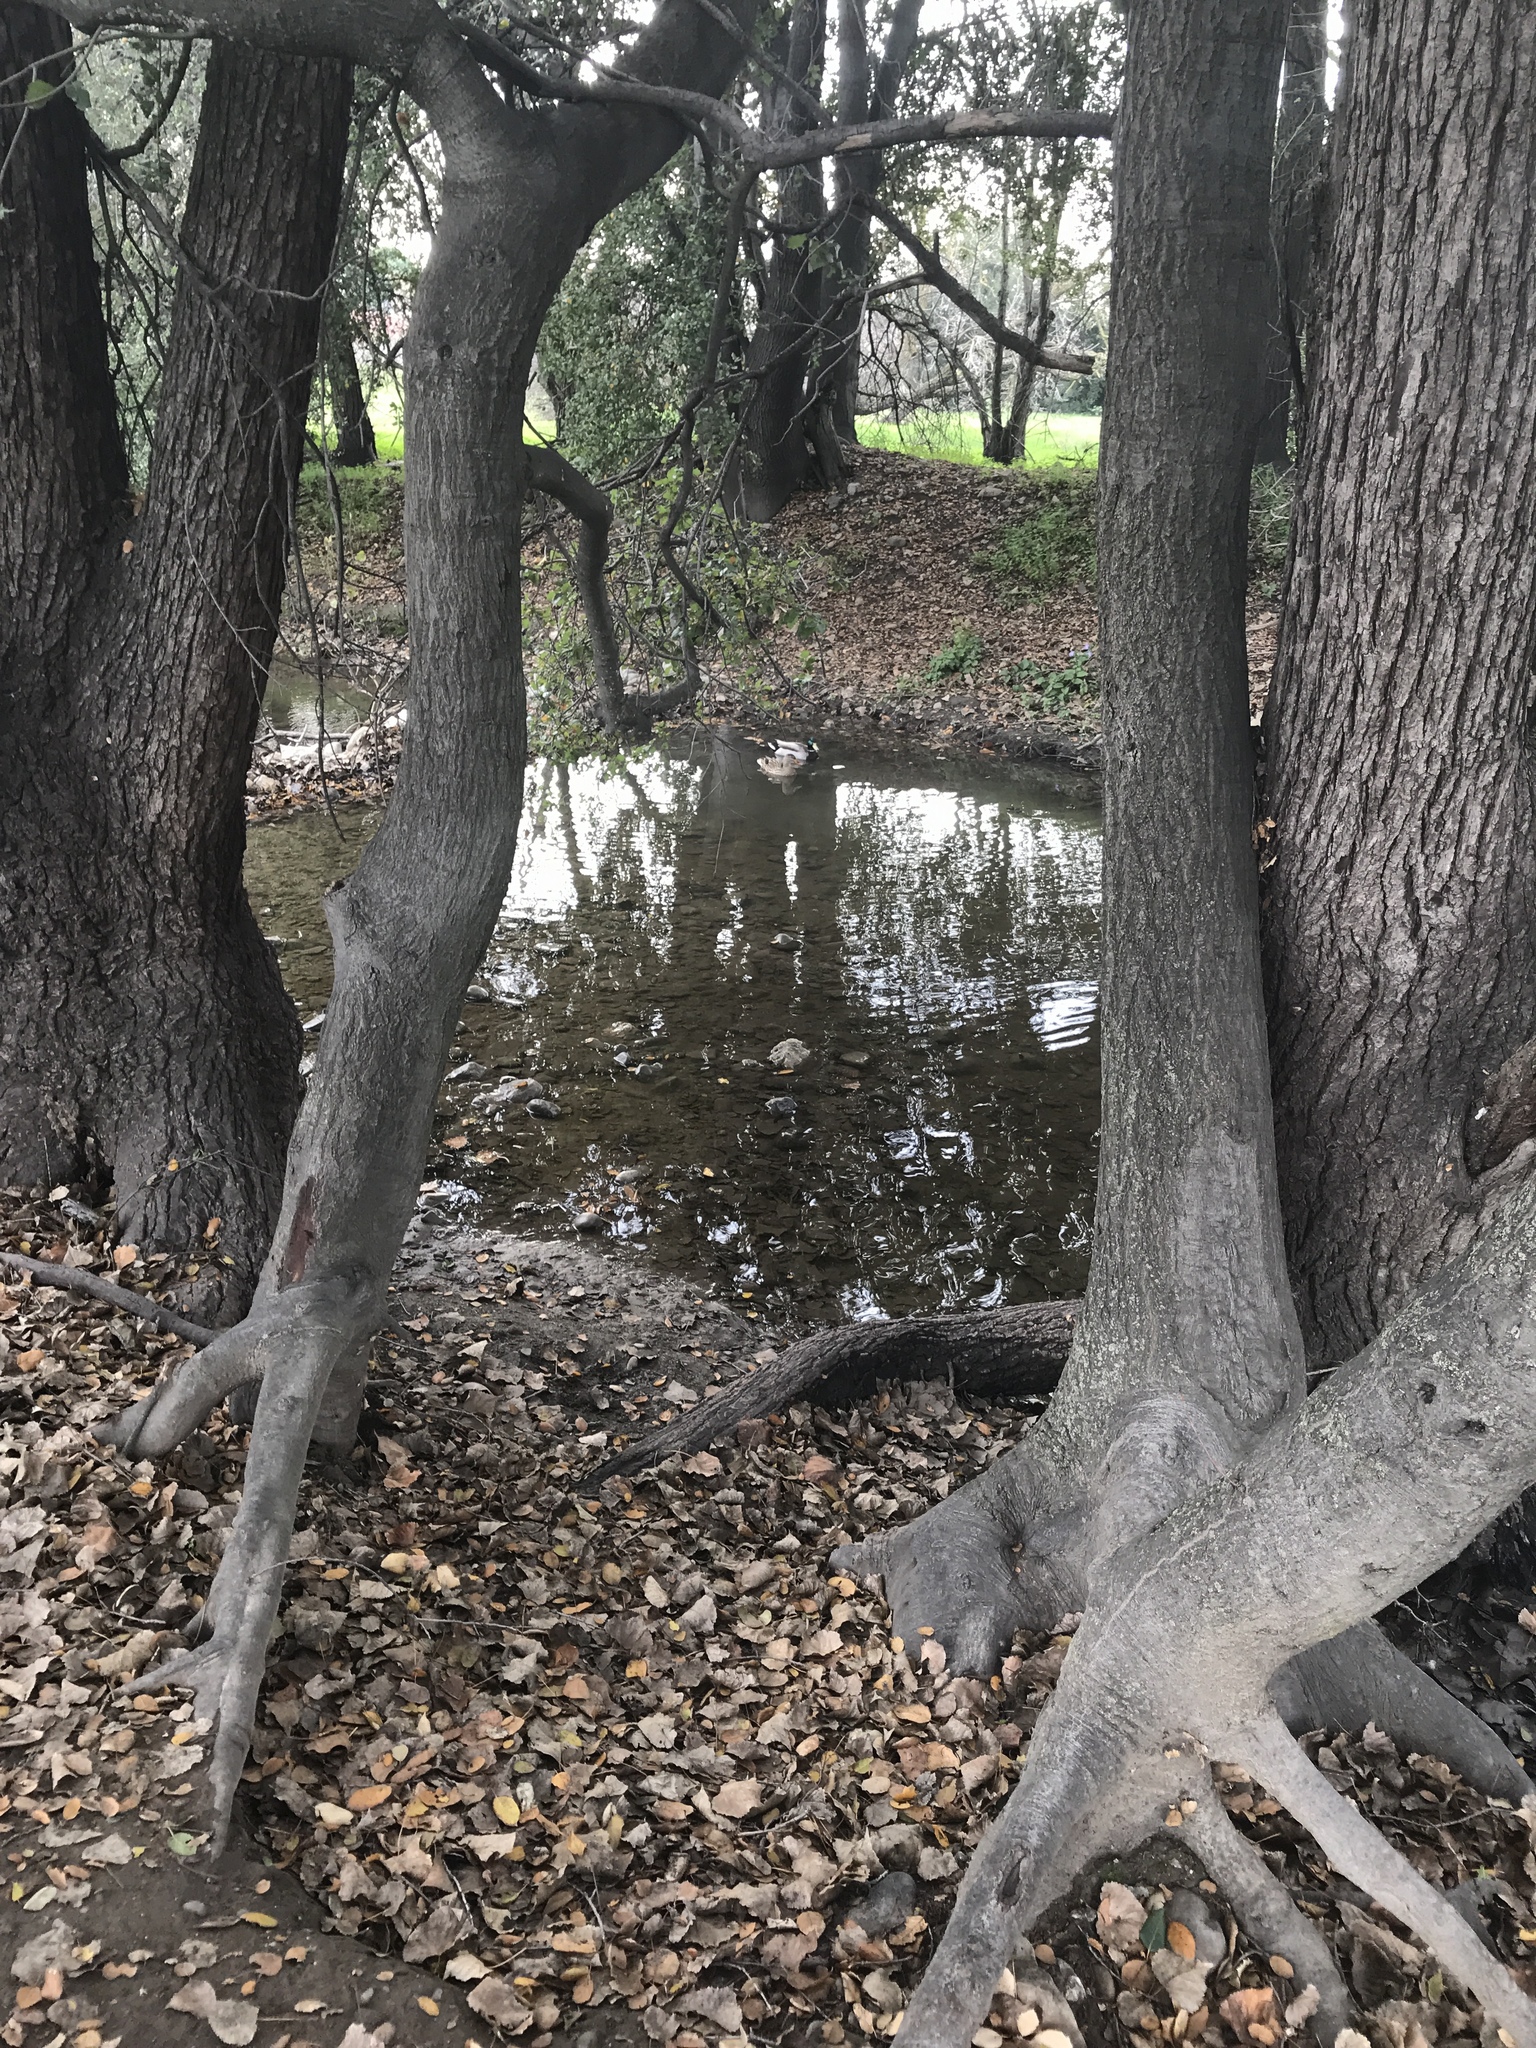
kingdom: Animalia
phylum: Chordata
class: Aves
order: Anseriformes
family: Anatidae
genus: Anas
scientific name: Anas platyrhynchos
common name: Mallard
